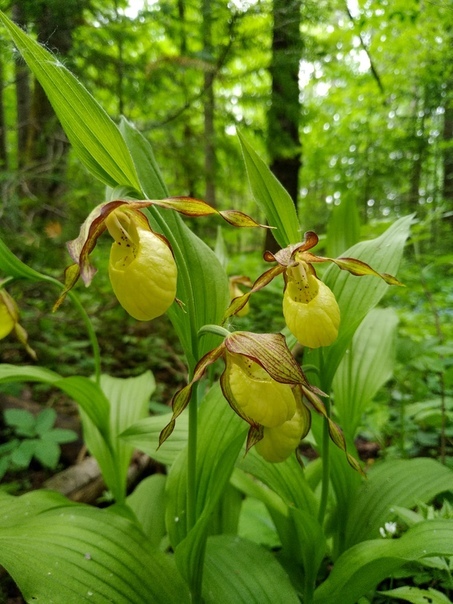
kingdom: Plantae
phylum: Tracheophyta
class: Liliopsida
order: Asparagales
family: Orchidaceae
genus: Cypripedium
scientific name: Cypripedium calceolus
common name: Lady's-slipper
